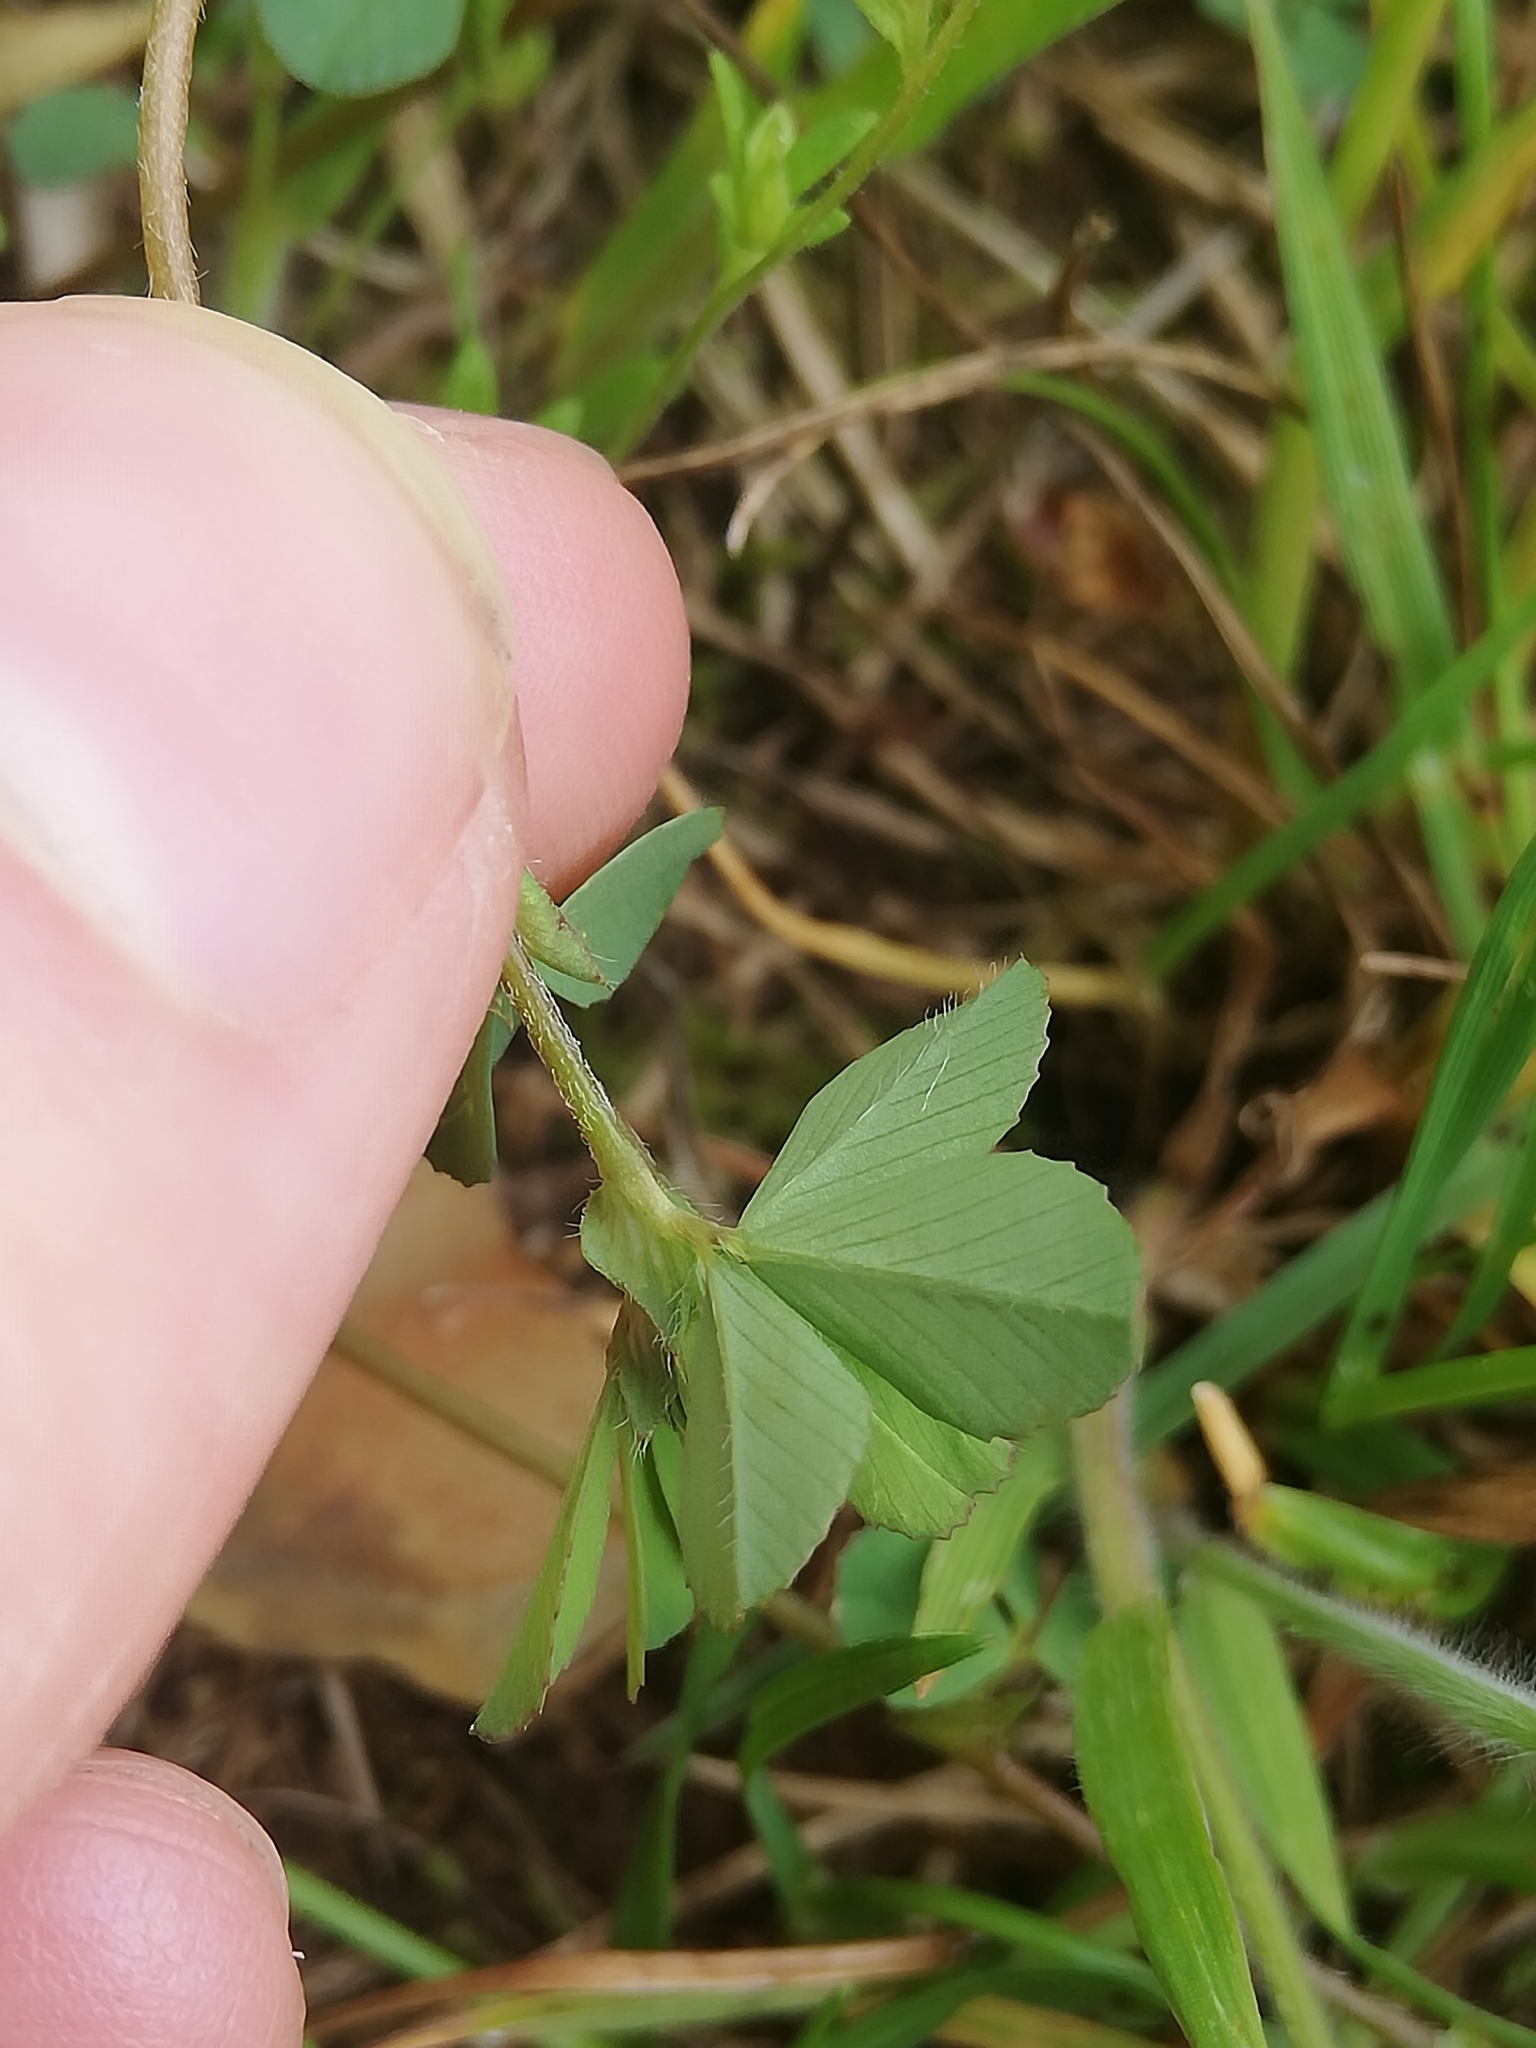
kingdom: Plantae
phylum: Tracheophyta
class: Magnoliopsida
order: Fabales
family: Fabaceae
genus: Trifolium
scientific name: Trifolium dubium
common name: Suckling clover
